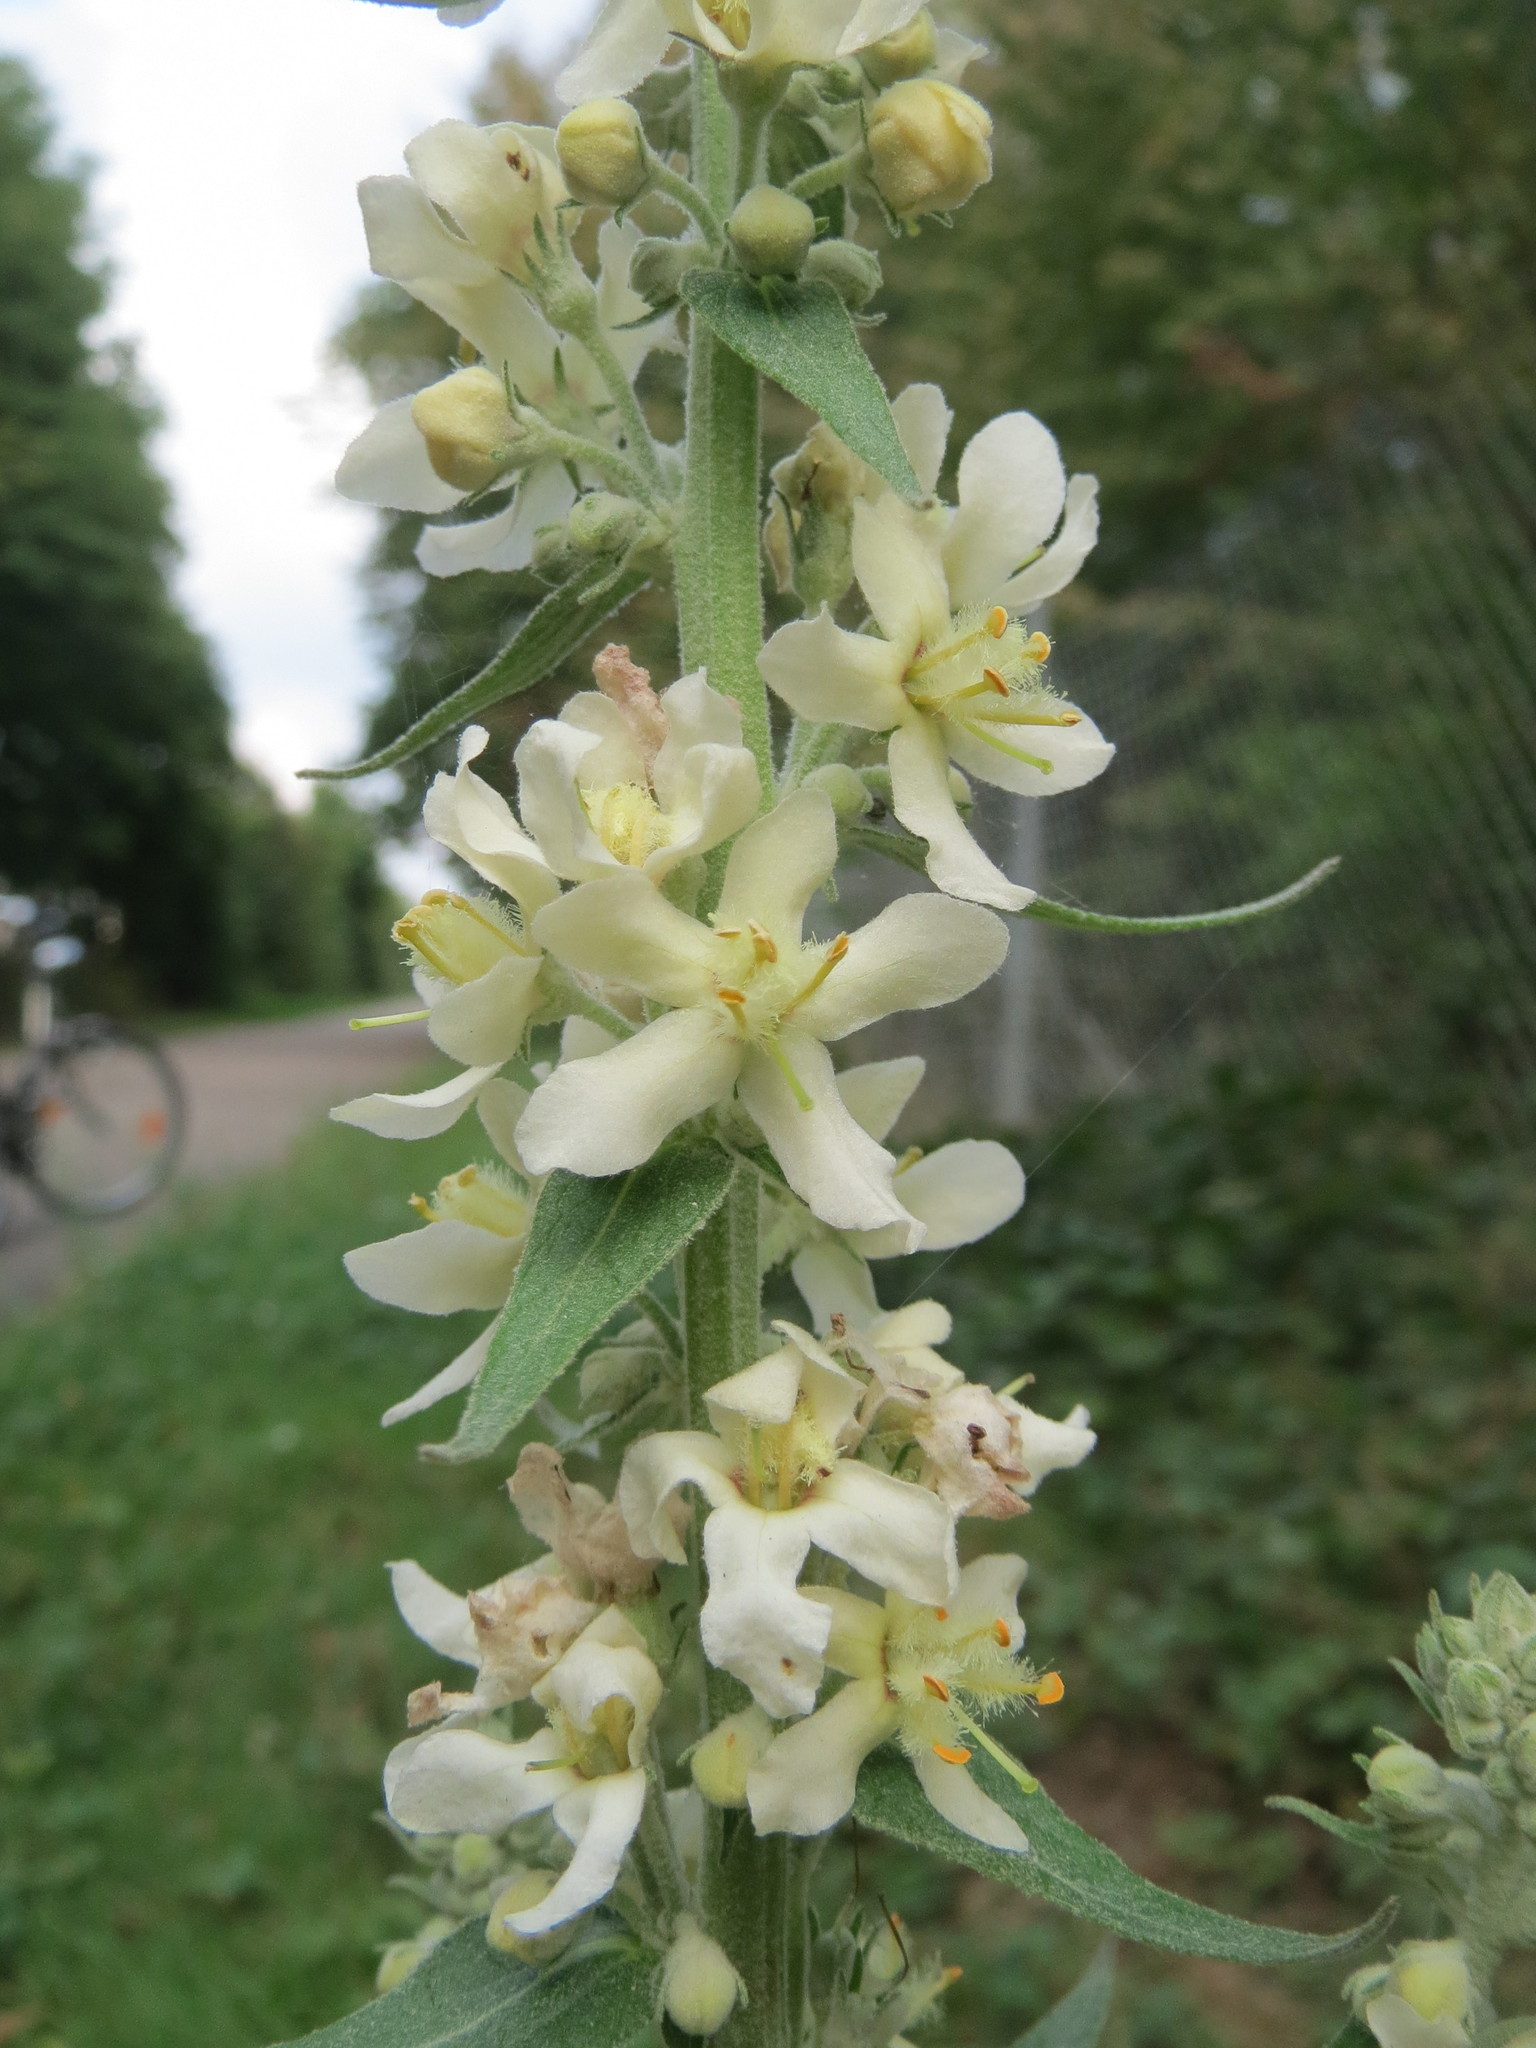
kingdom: Plantae
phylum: Tracheophyta
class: Magnoliopsida
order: Lamiales
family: Scrophulariaceae
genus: Verbascum
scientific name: Verbascum lychnitis
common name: White mullein
